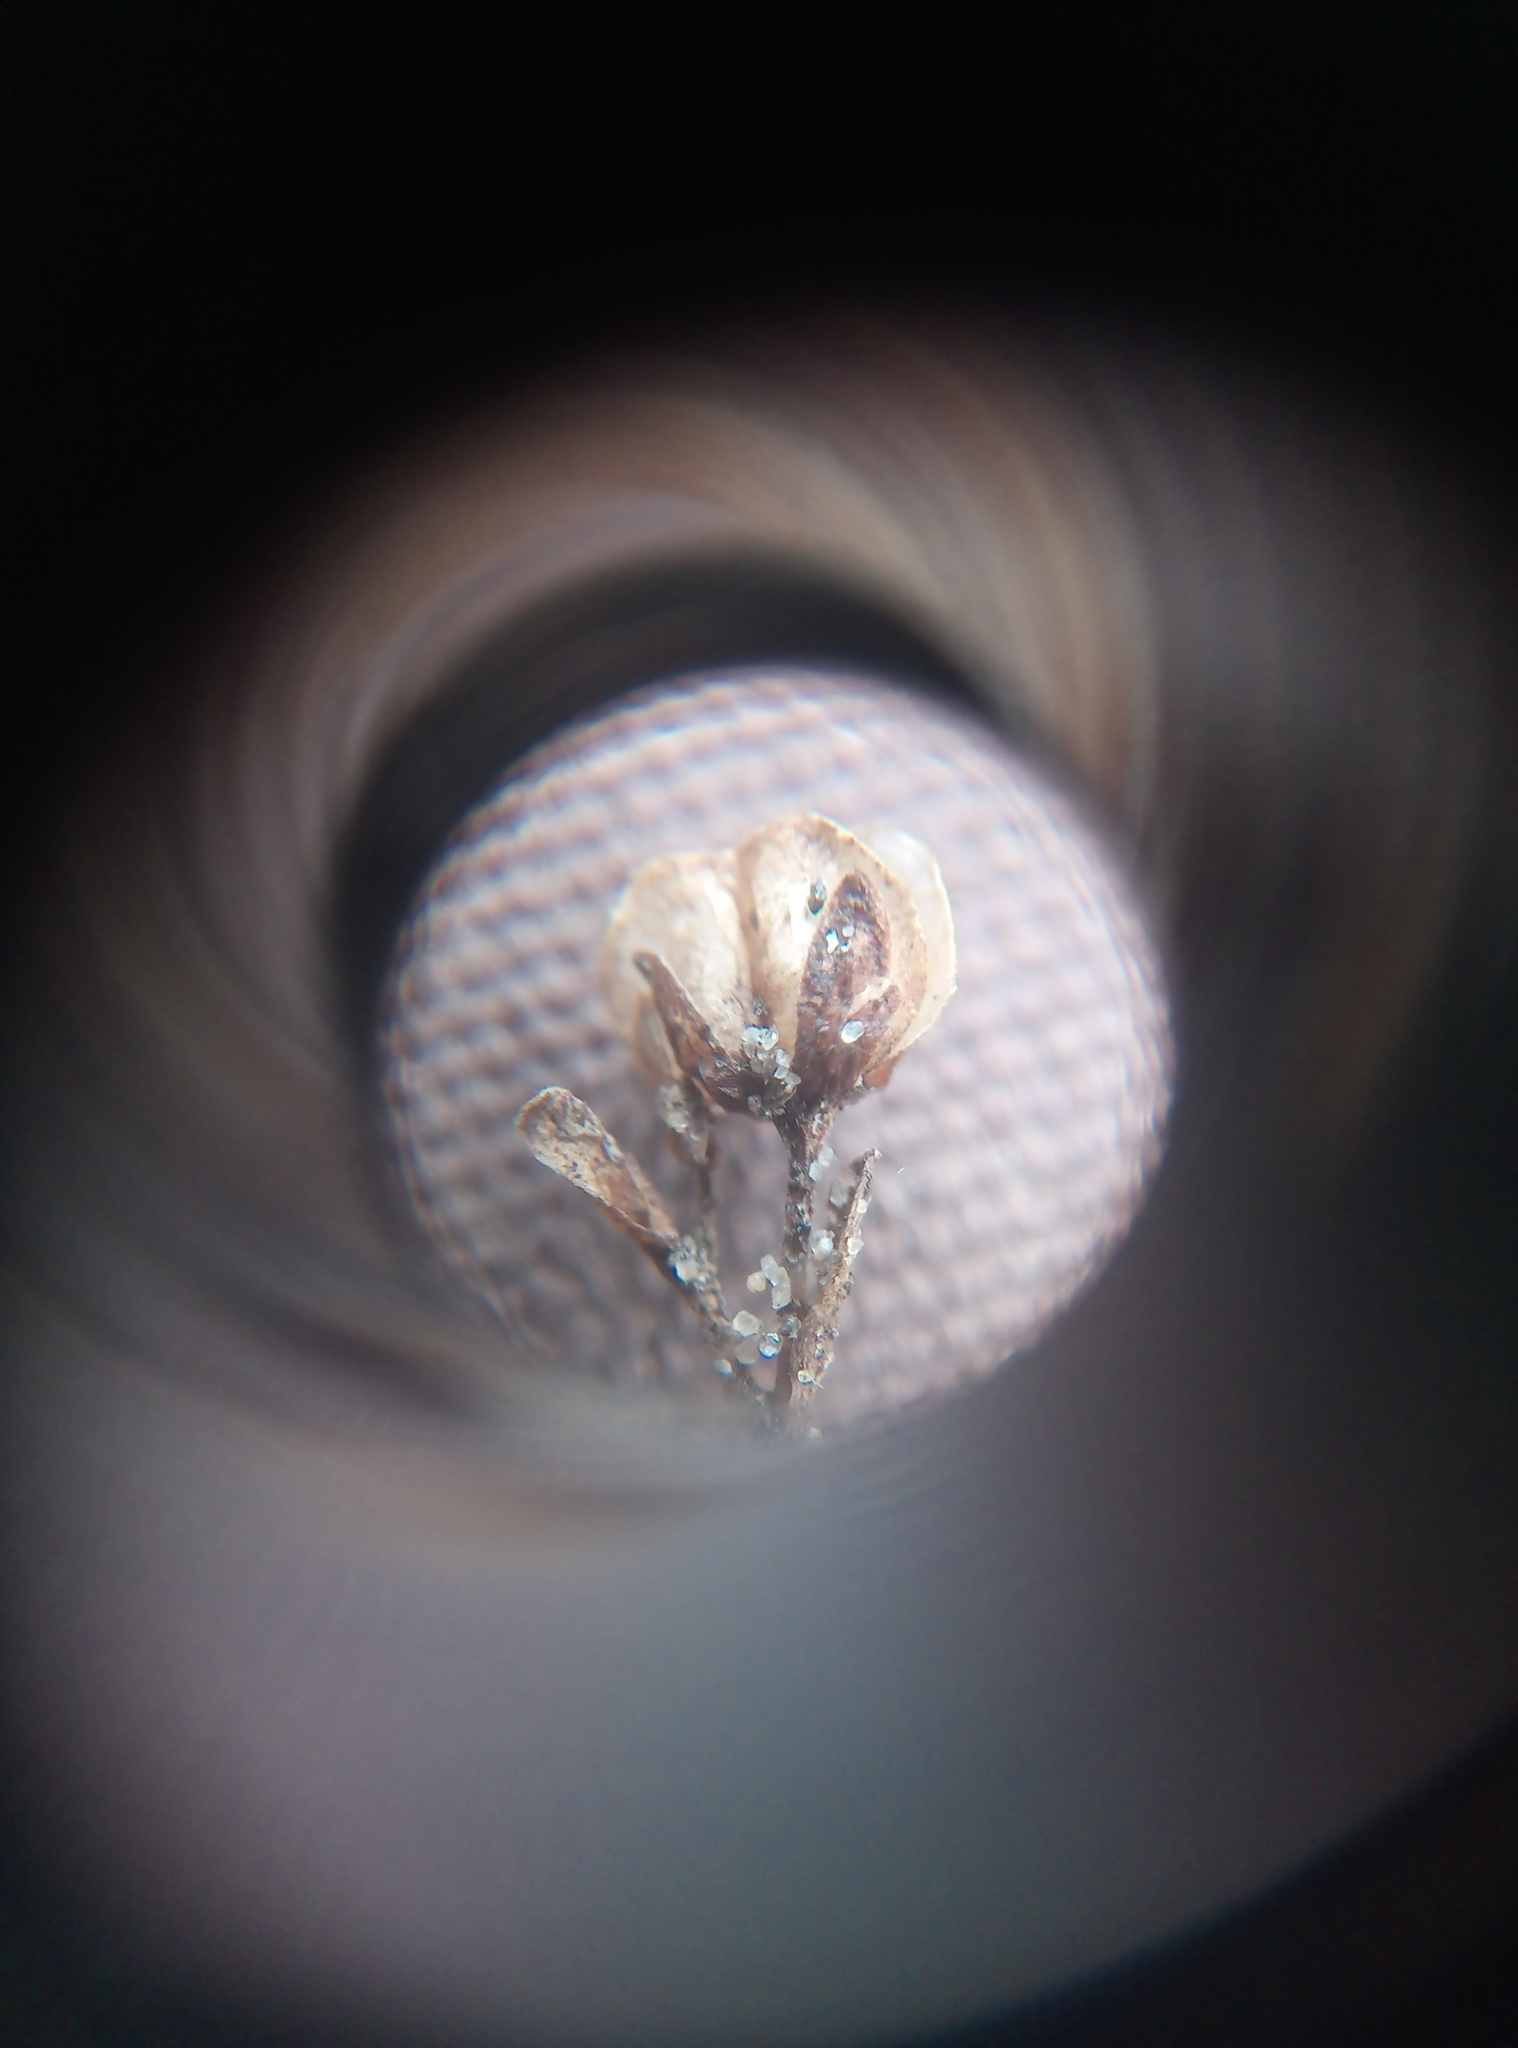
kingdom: Plantae
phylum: Tracheophyta
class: Magnoliopsida
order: Lamiales
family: Plantaginaceae
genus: Veronica
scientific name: Veronica serpyllifolia
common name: Thyme-leaved speedwell
